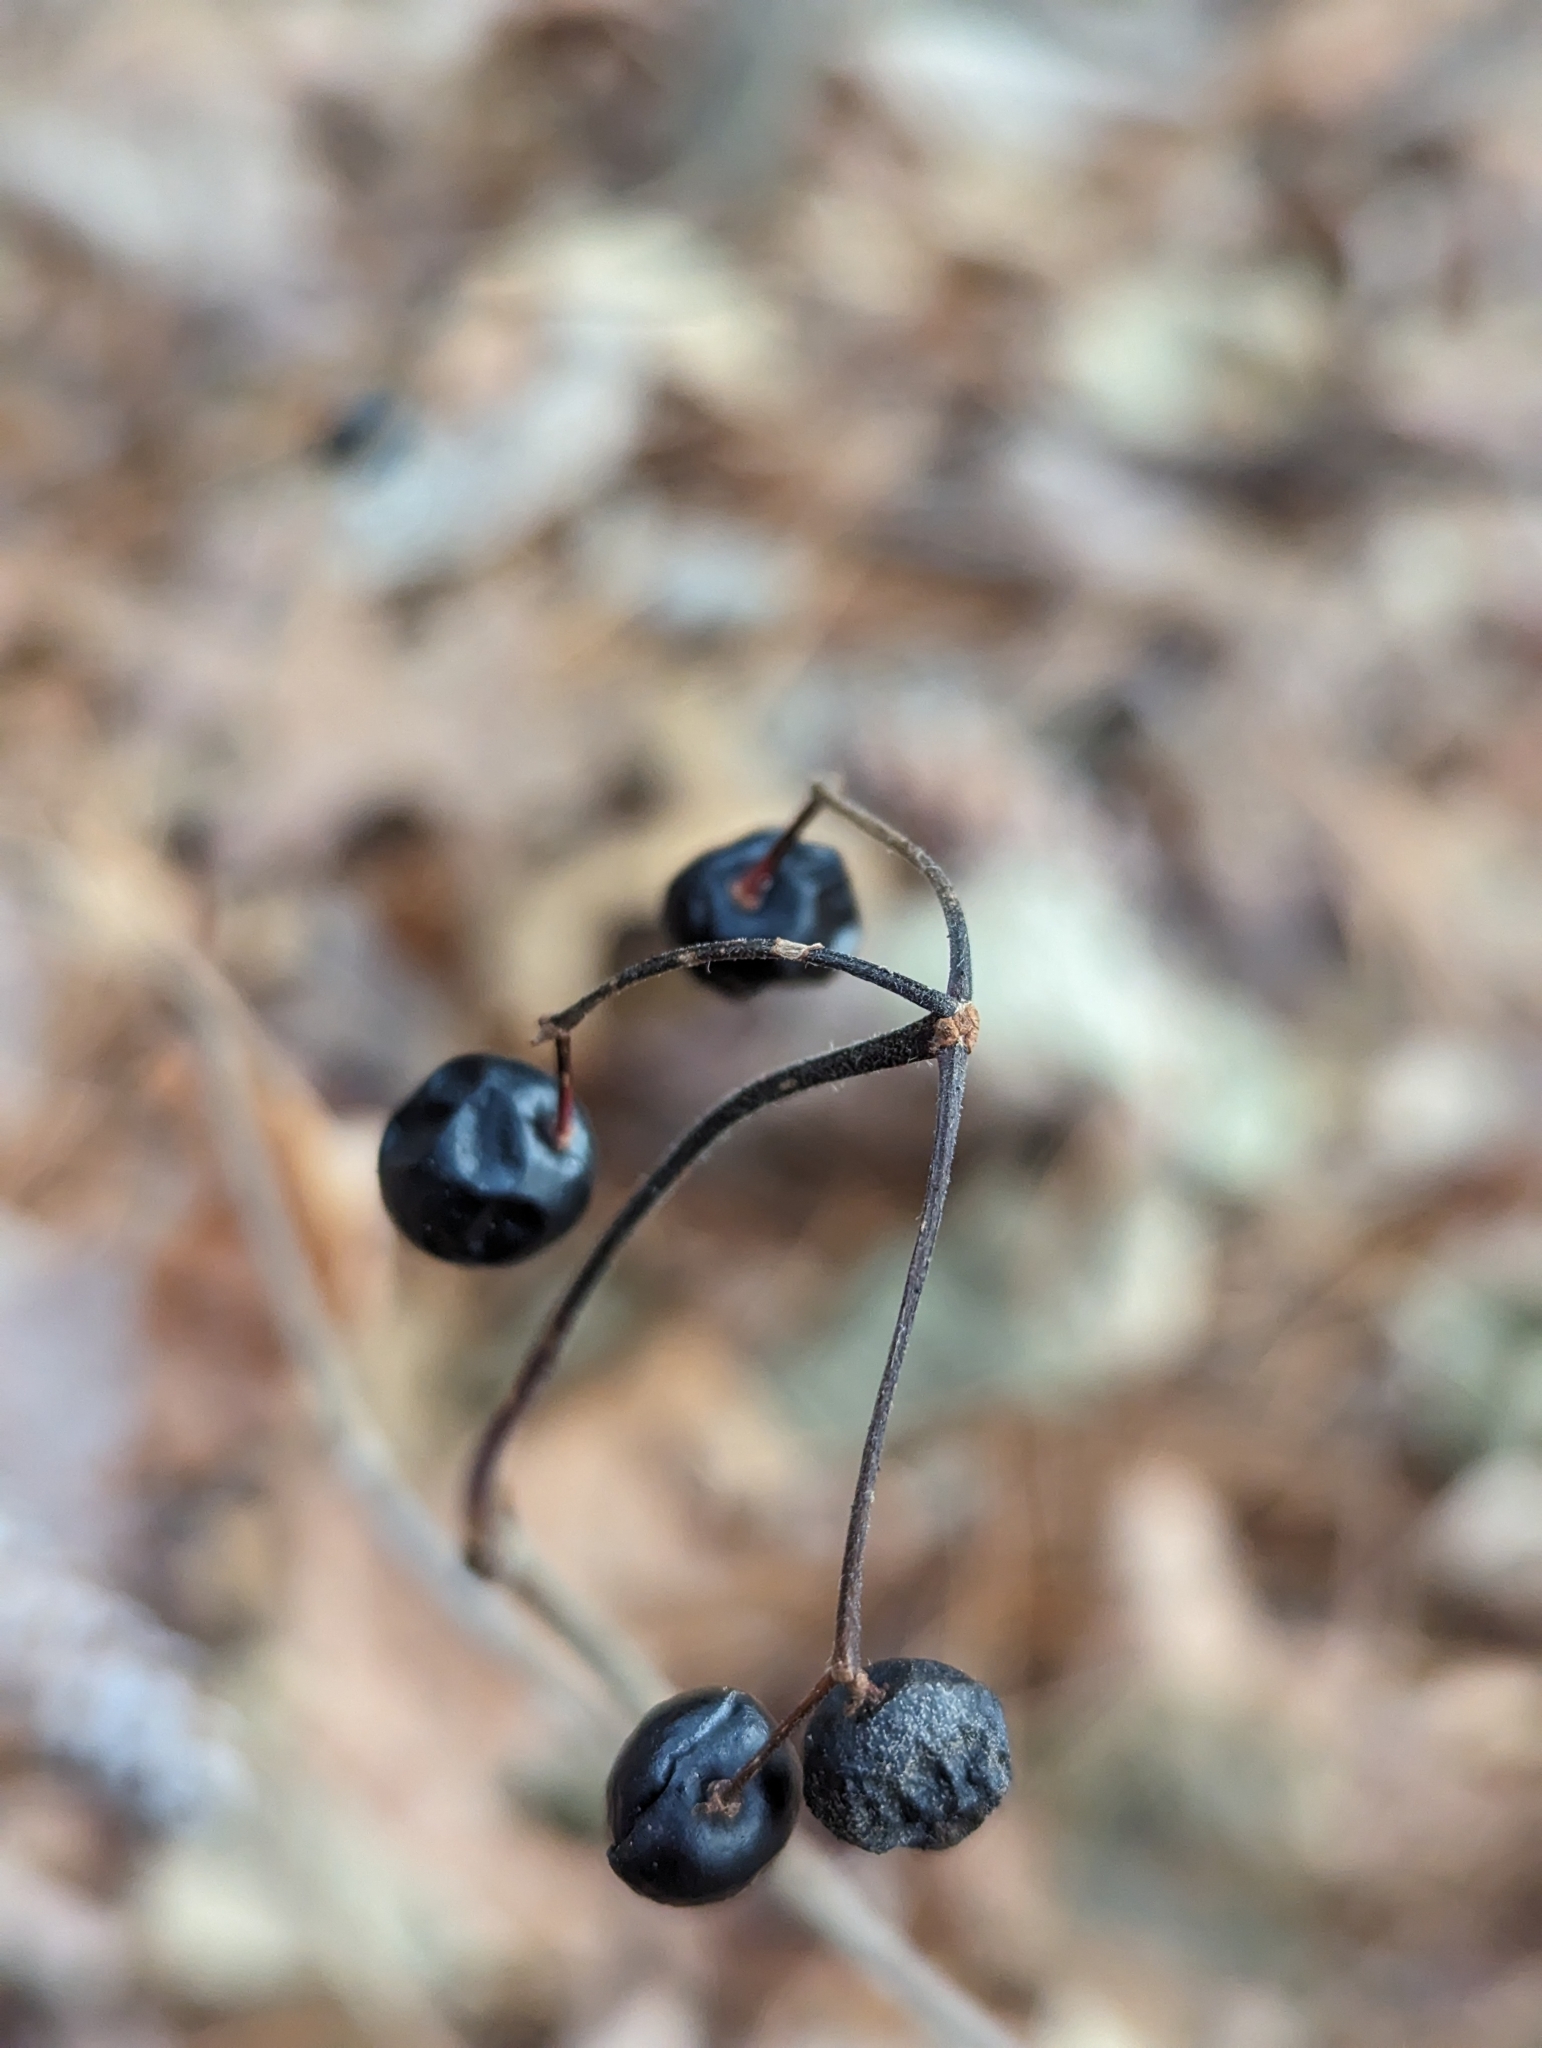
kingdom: Plantae
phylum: Tracheophyta
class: Magnoliopsida
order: Dipsacales
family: Viburnaceae
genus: Viburnum
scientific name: Viburnum acerifolium
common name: Dockmackie
